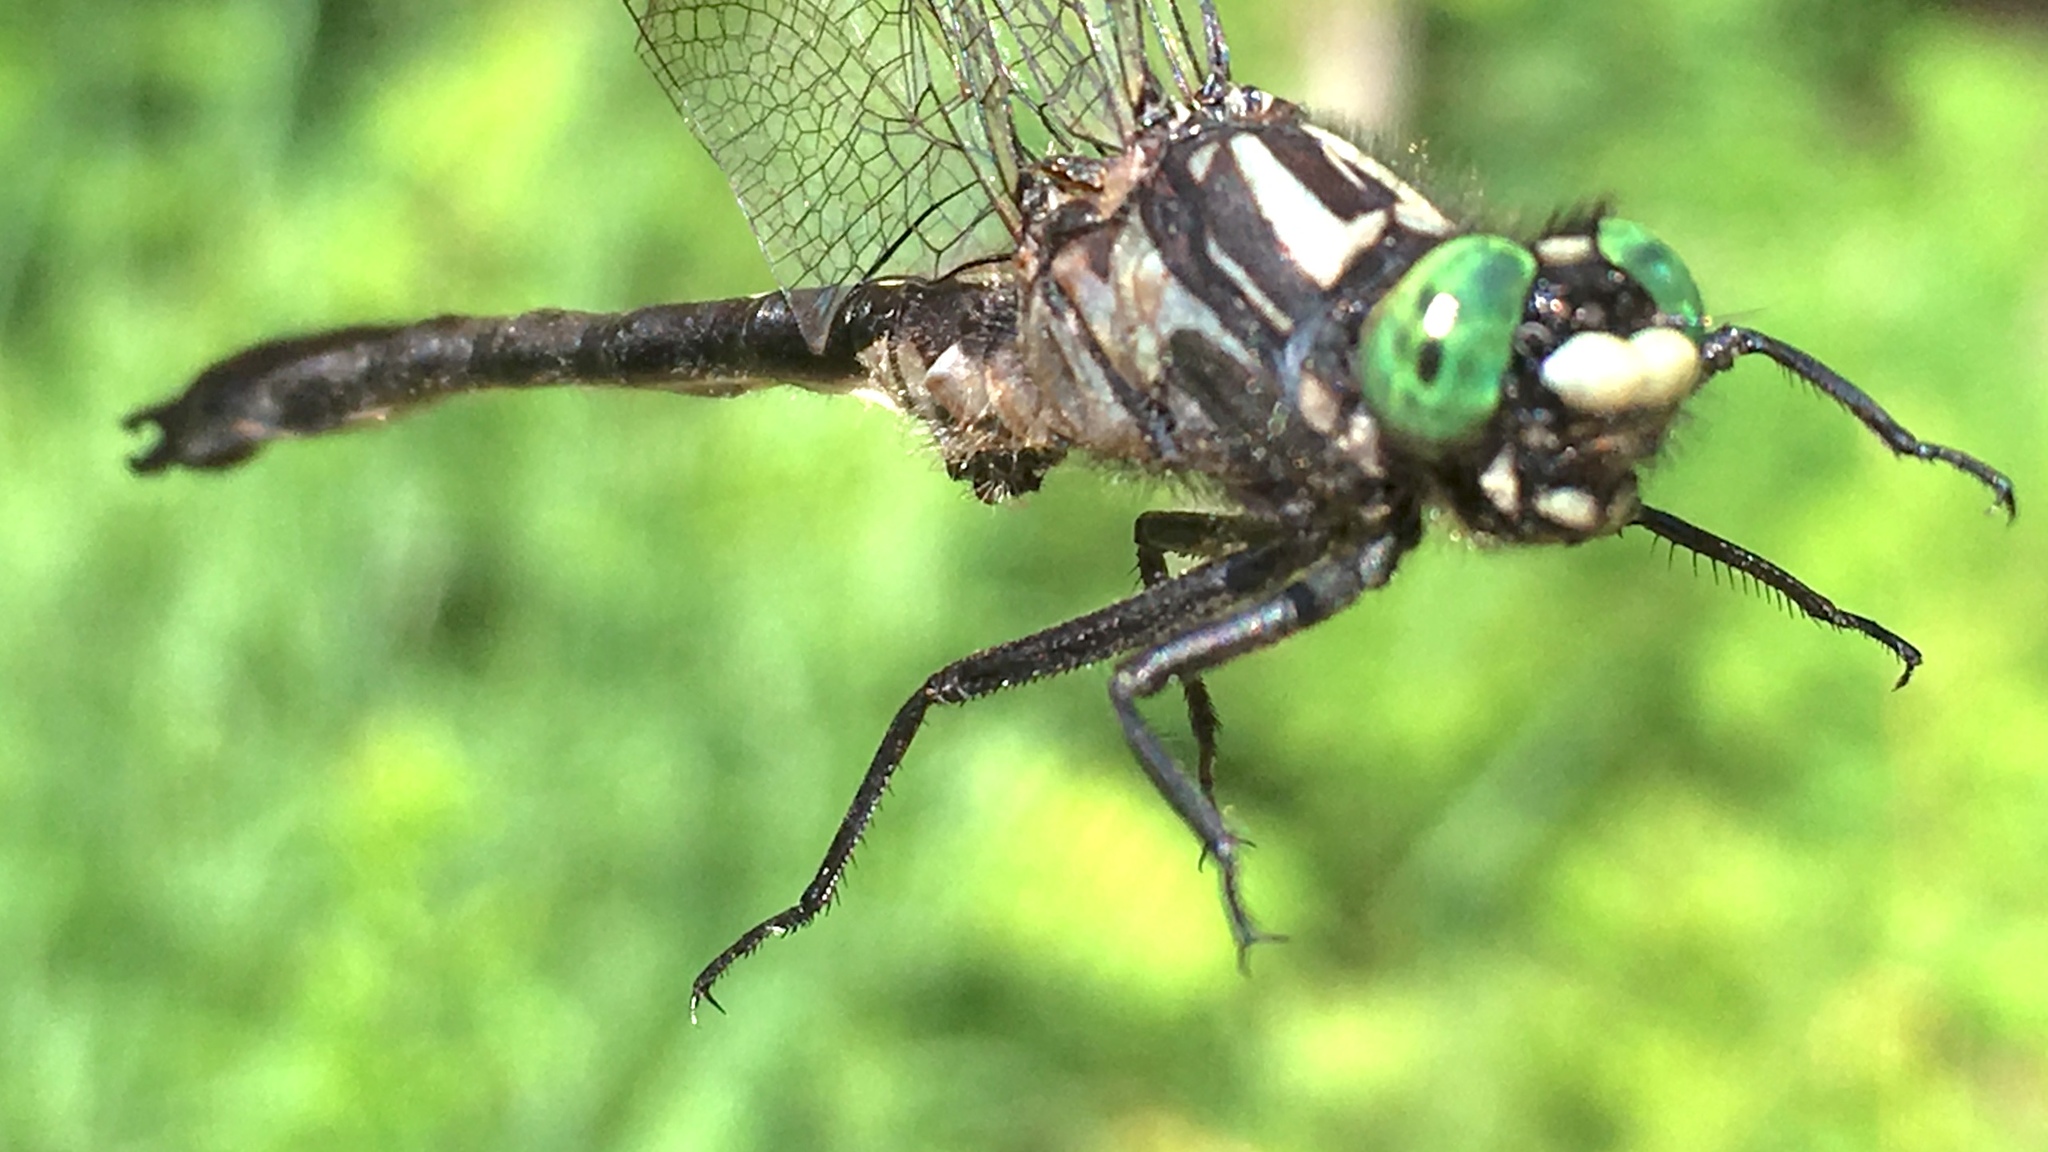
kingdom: Animalia
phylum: Arthropoda
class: Insecta
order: Odonata
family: Gomphidae
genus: Hylogomphus
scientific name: Hylogomphus adelphus
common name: Mustached clubtail
